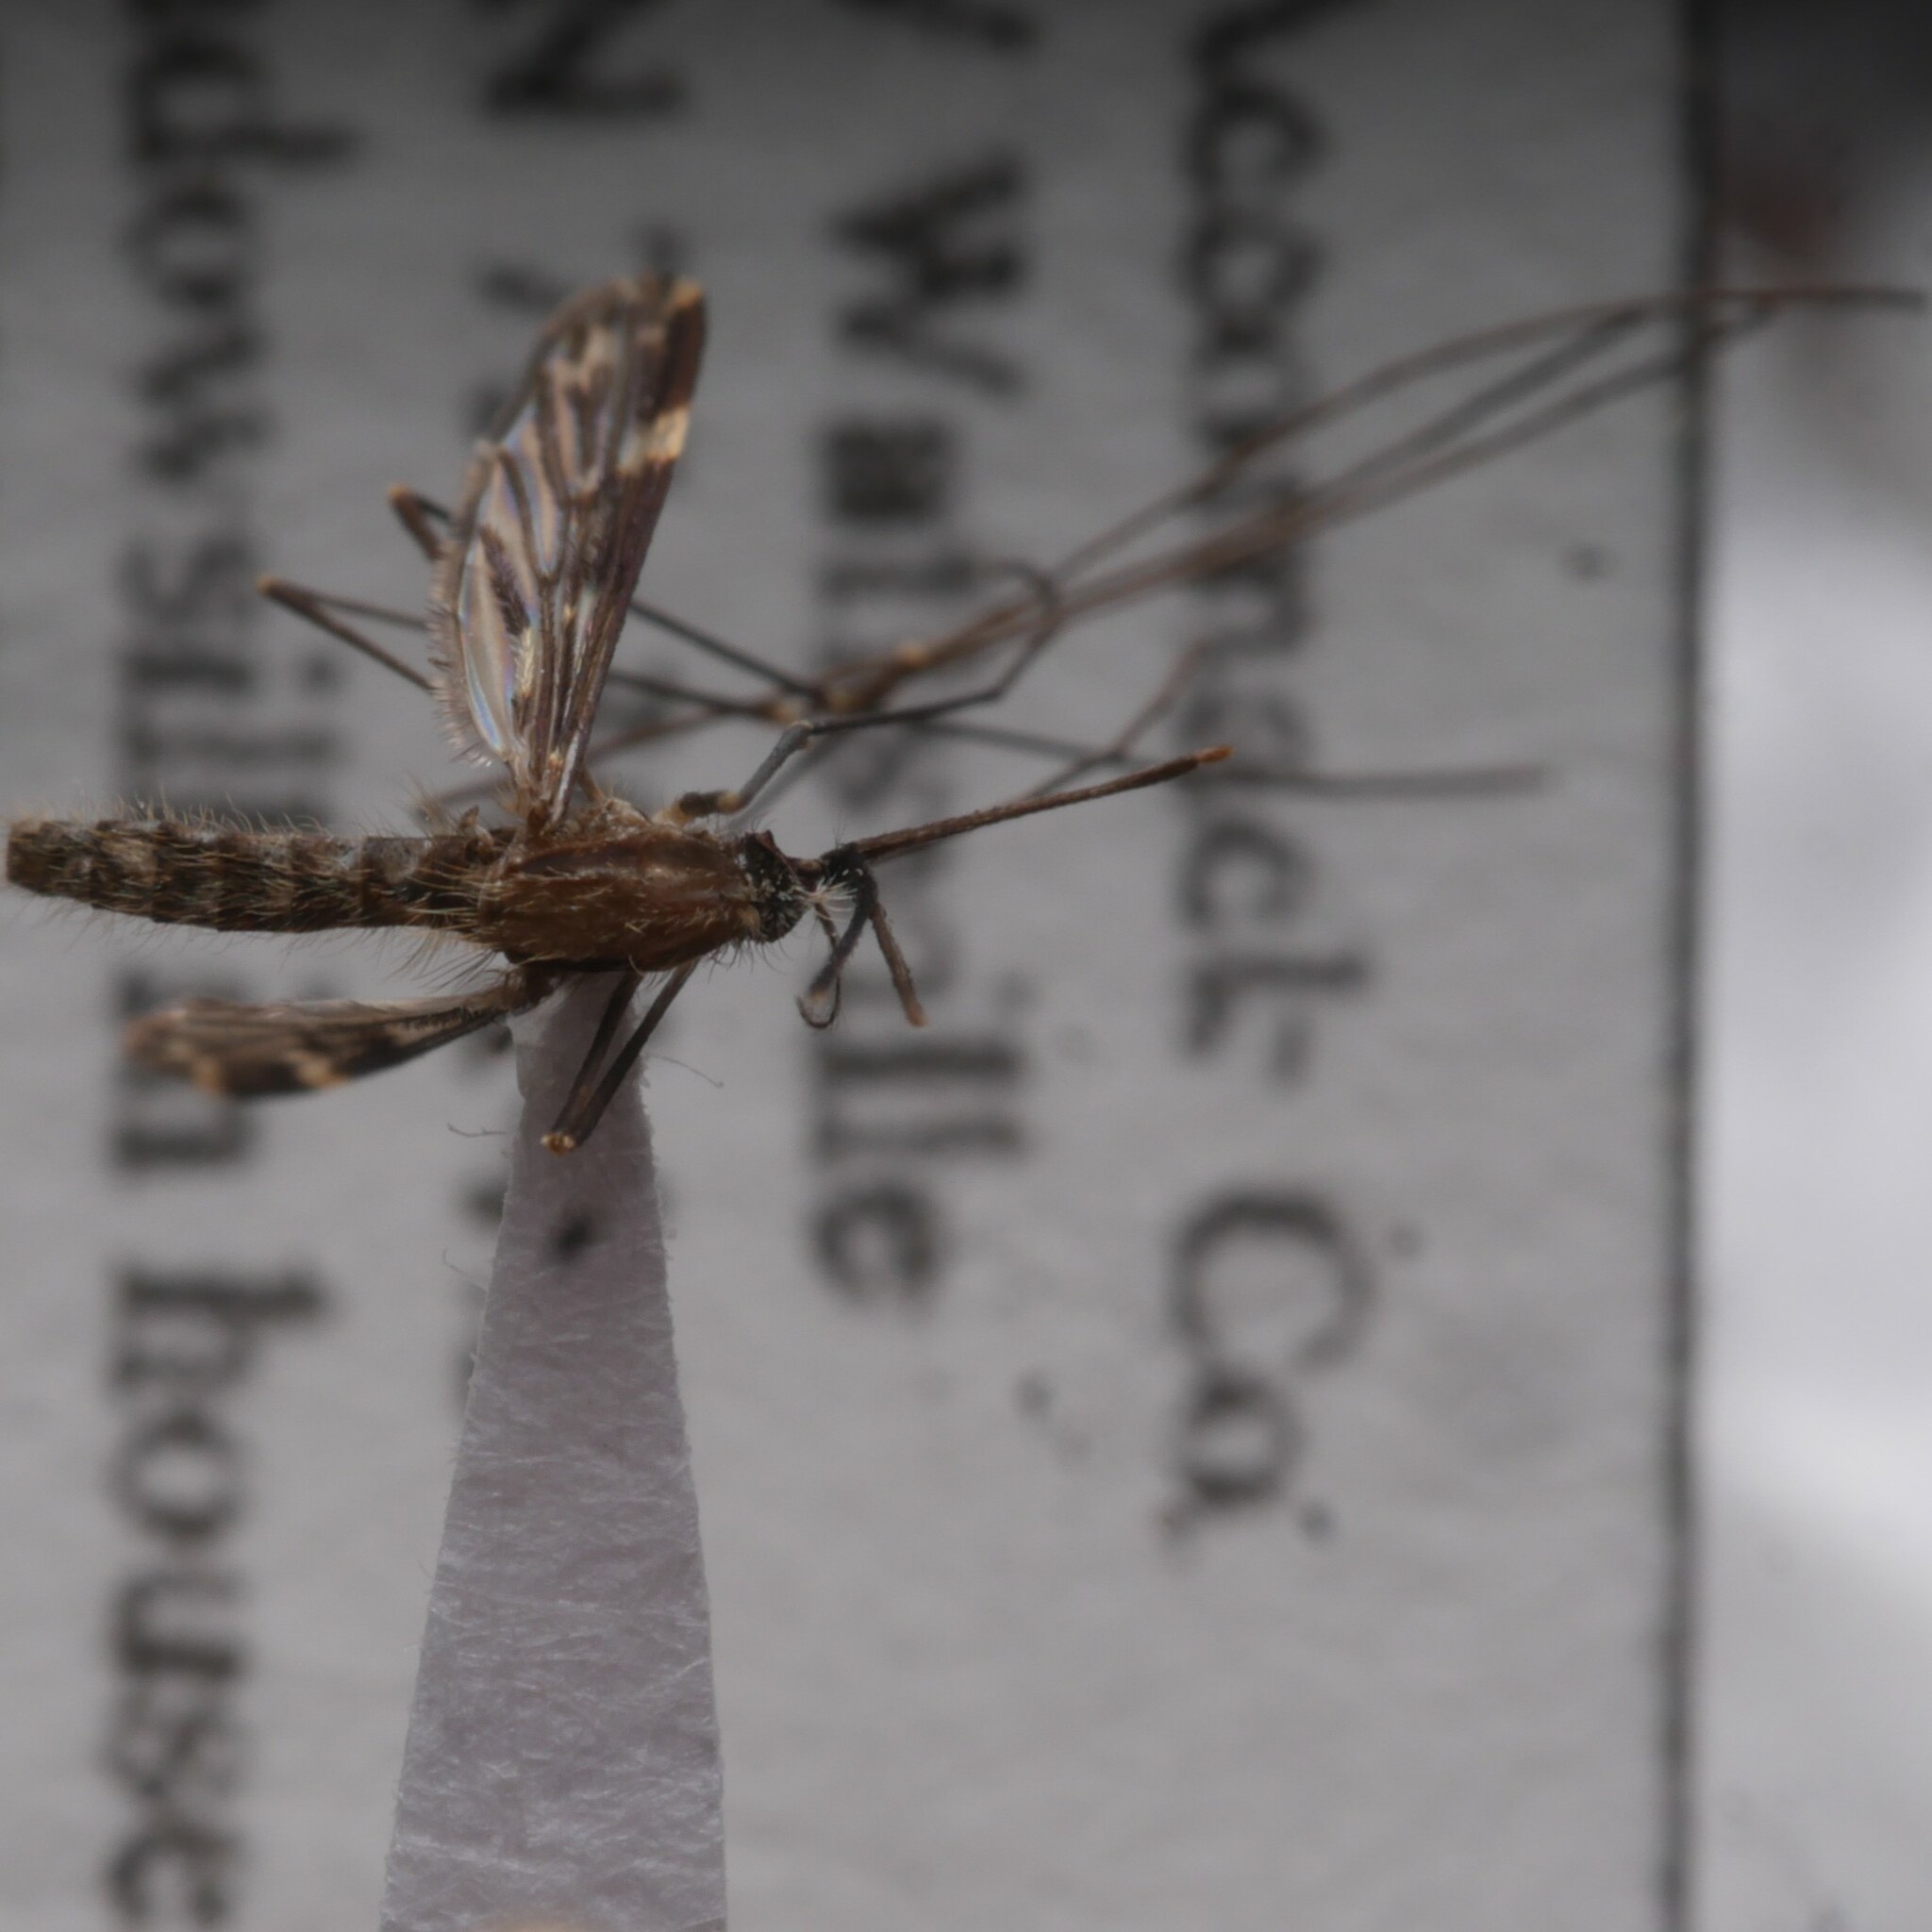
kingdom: Animalia
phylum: Arthropoda
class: Insecta
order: Diptera
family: Culicidae
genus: Anopheles
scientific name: Anopheles punctipennis
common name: Woodland malaria mosquito
